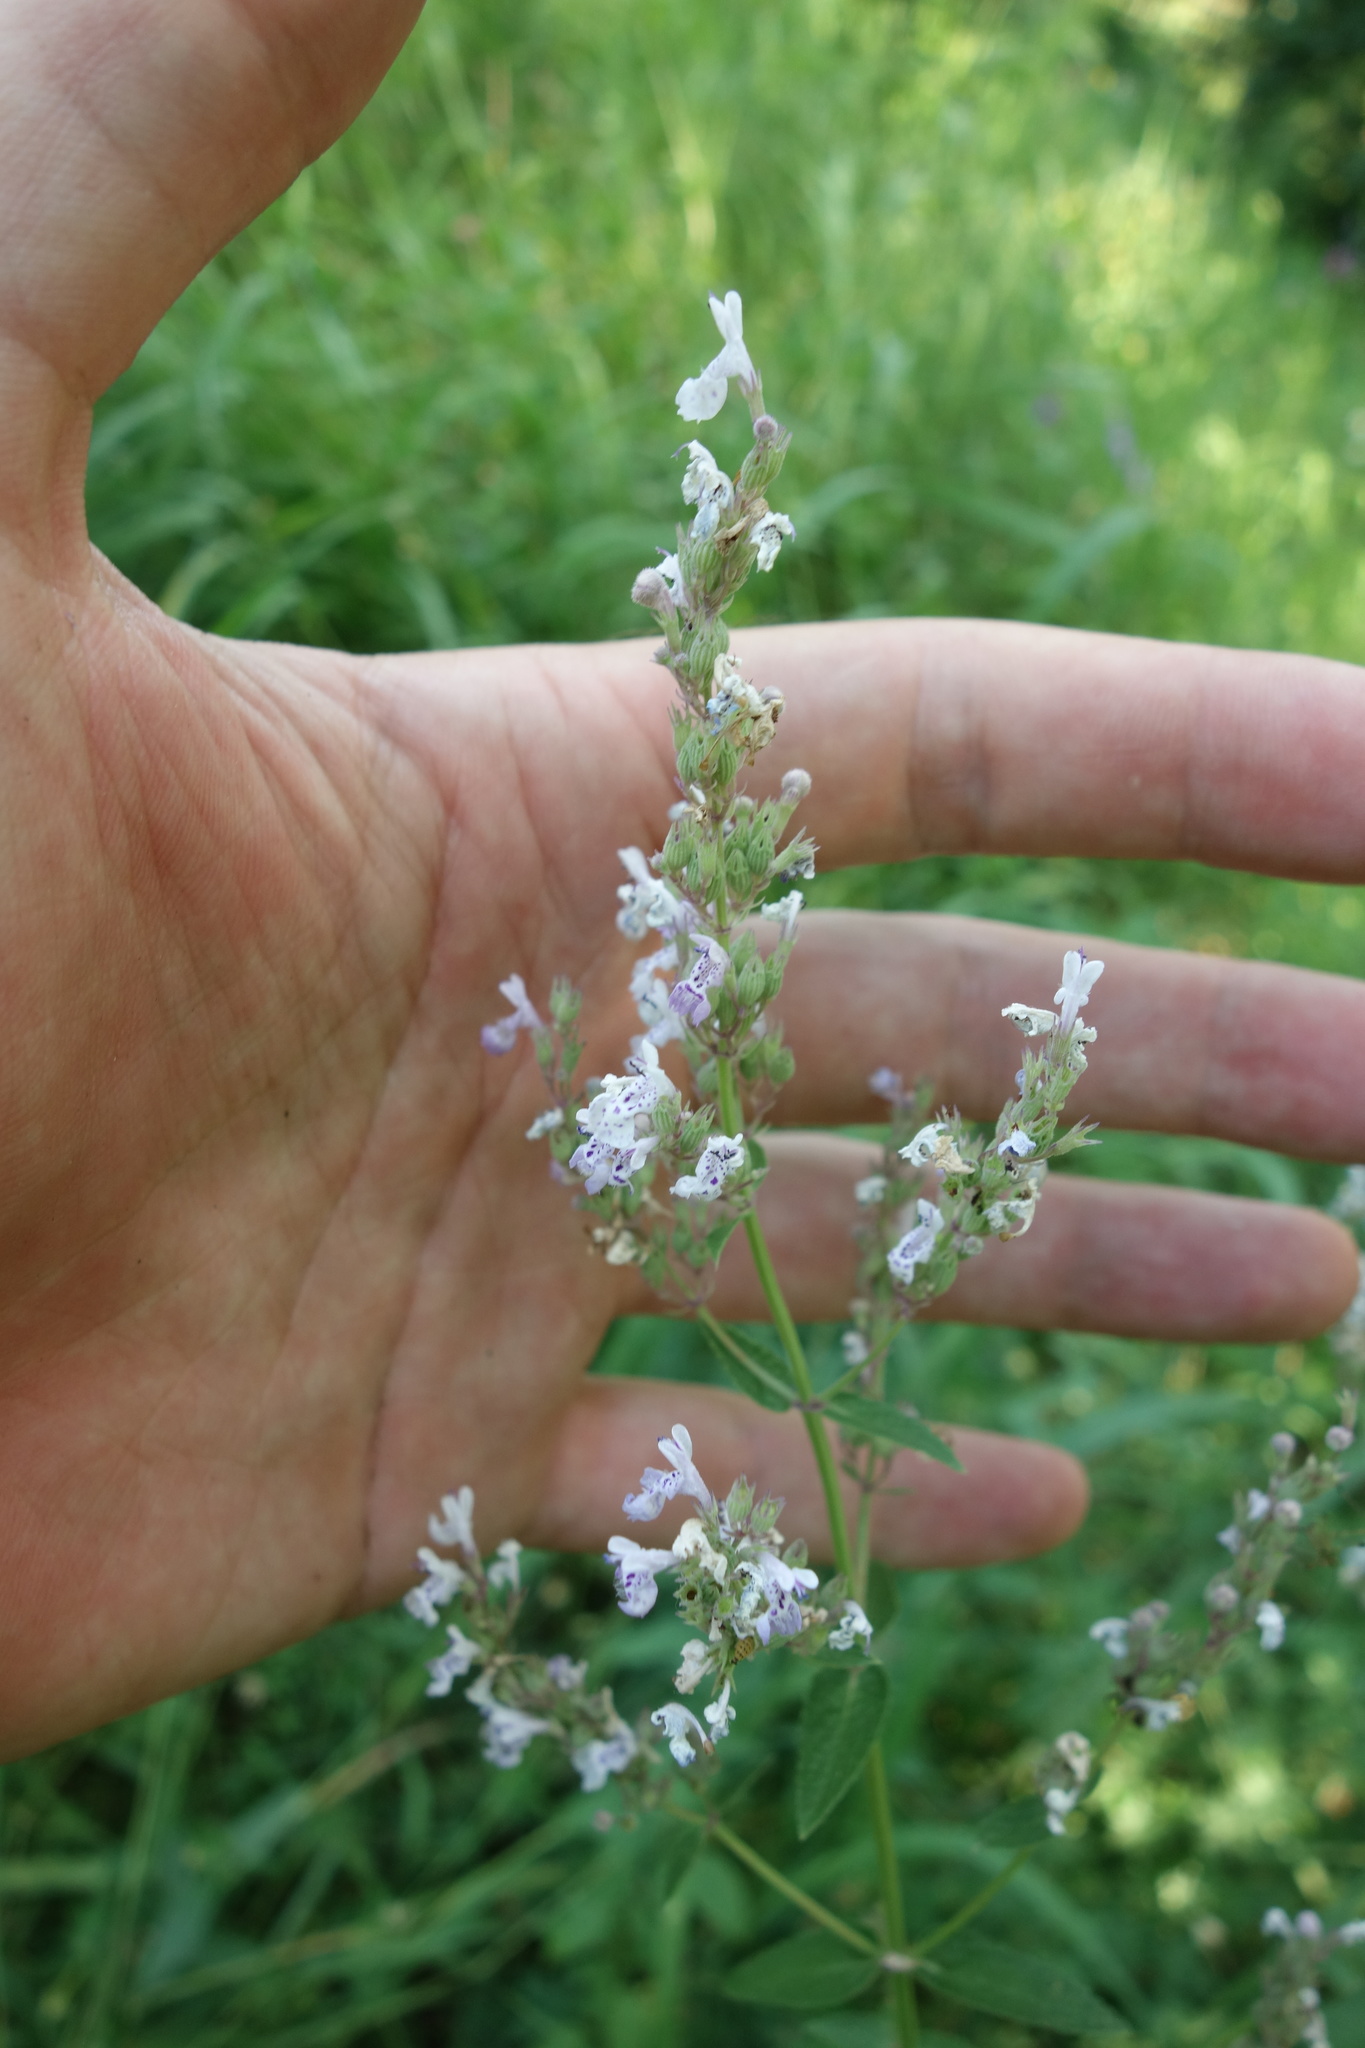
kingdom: Plantae
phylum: Tracheophyta
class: Magnoliopsida
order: Lamiales
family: Lamiaceae
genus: Nepeta
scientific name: Nepeta nuda
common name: Hairless catmint
